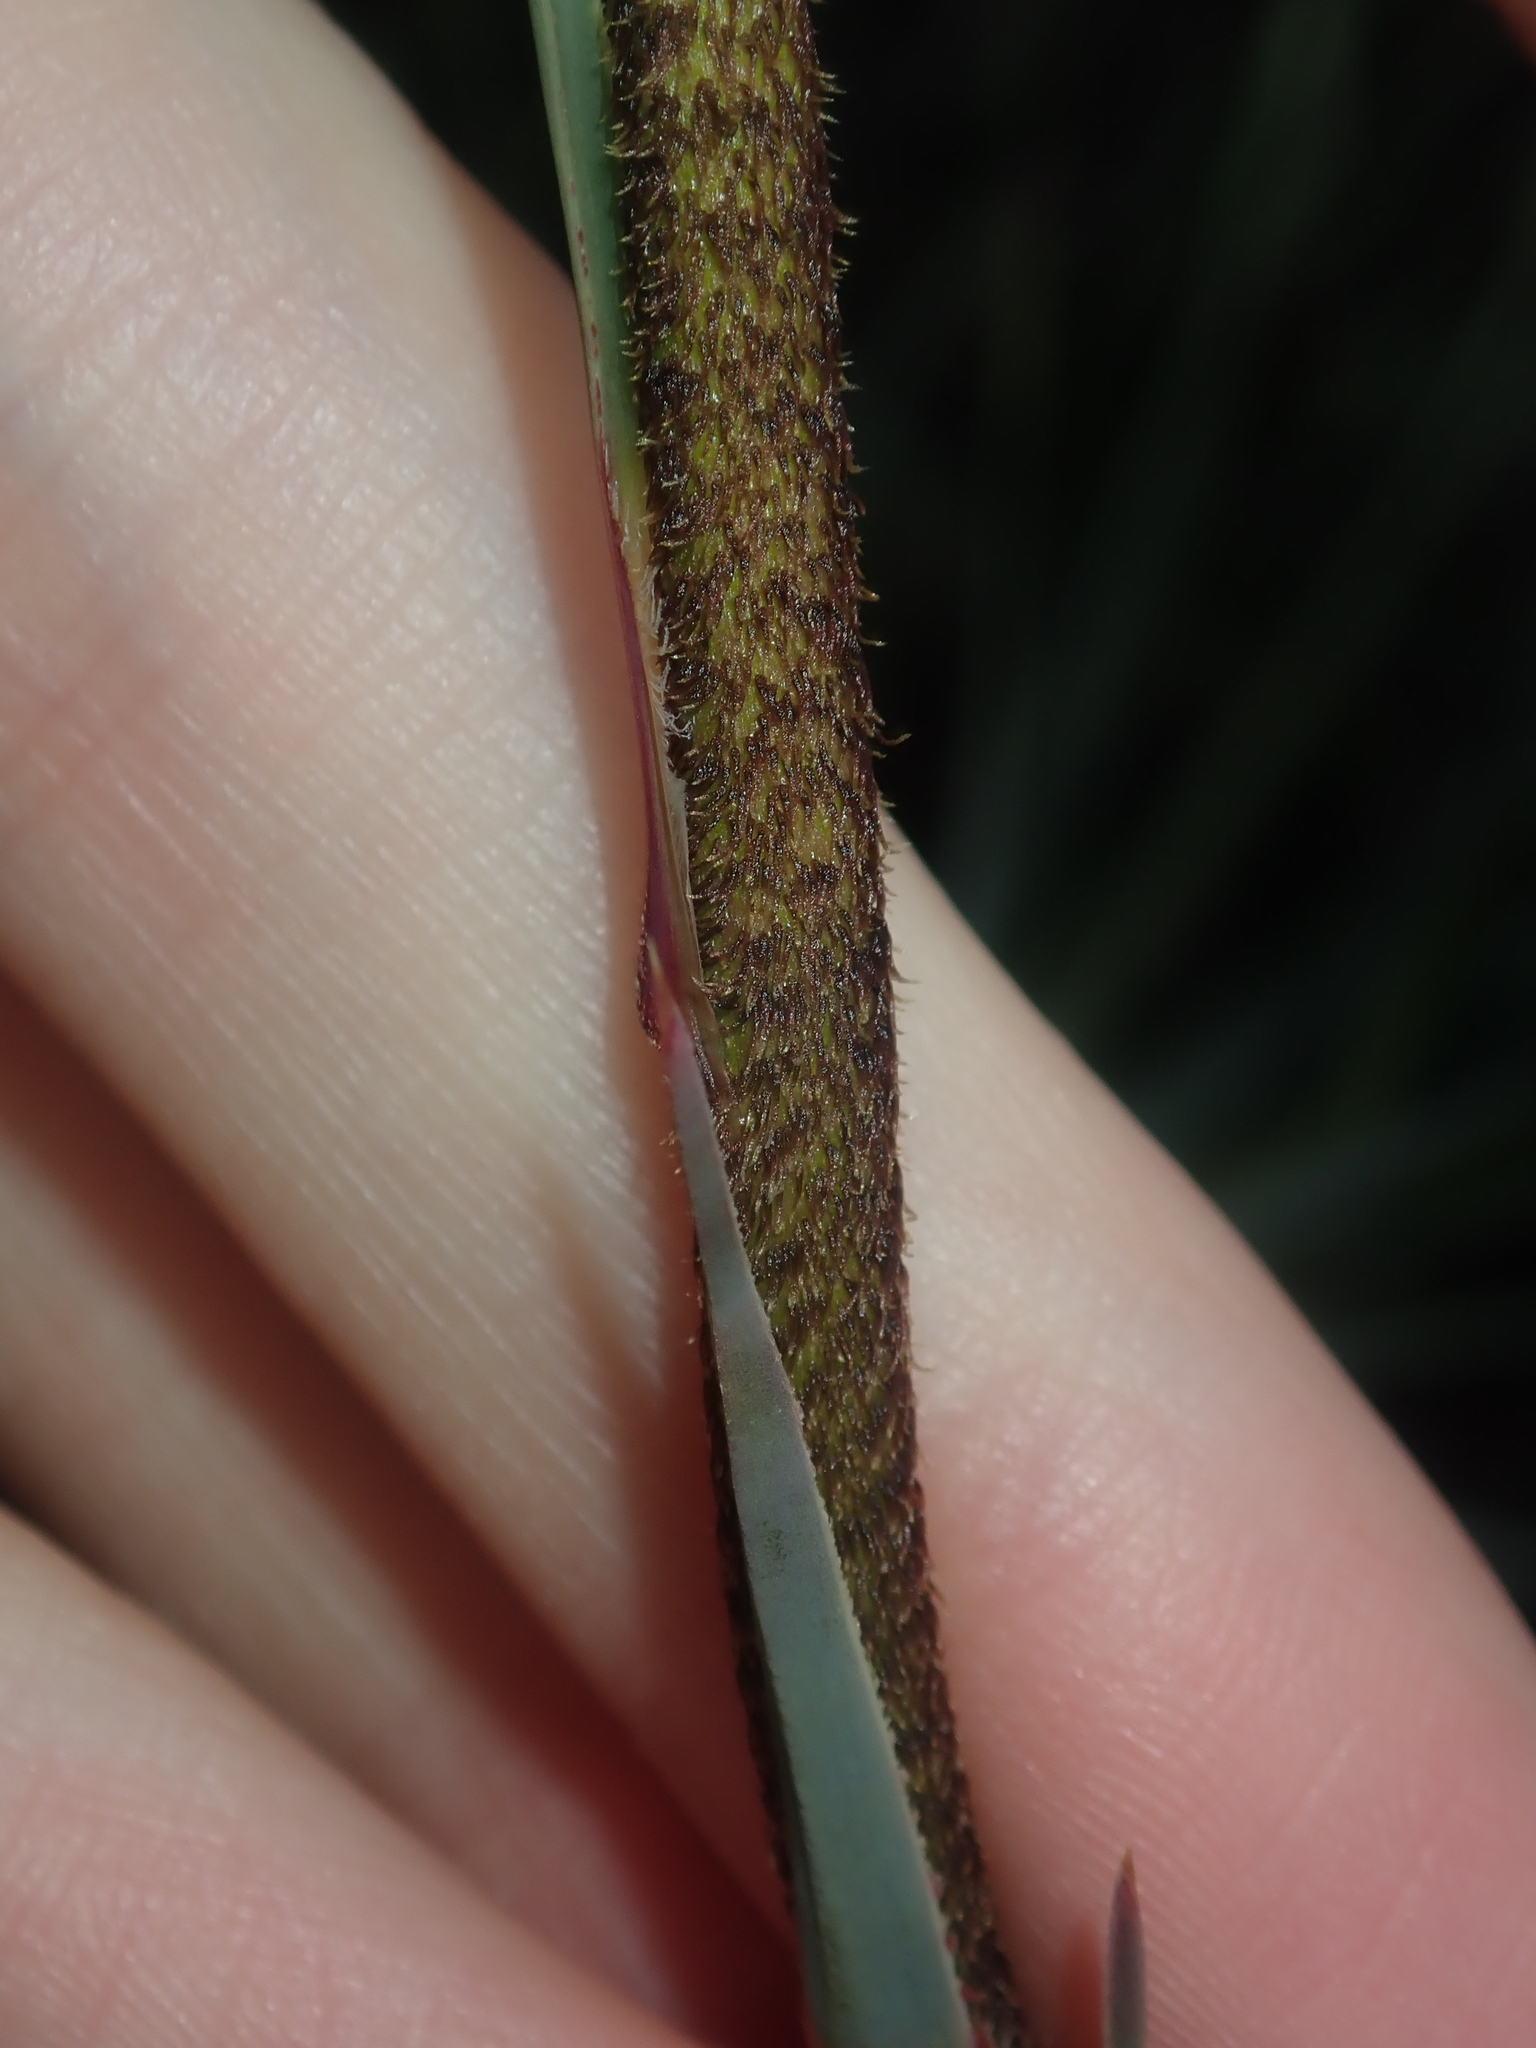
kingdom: Plantae
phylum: Tracheophyta
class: Liliopsida
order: Arecales
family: Dasypogonaceae
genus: Dasypogon
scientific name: Dasypogon obliquifolius
